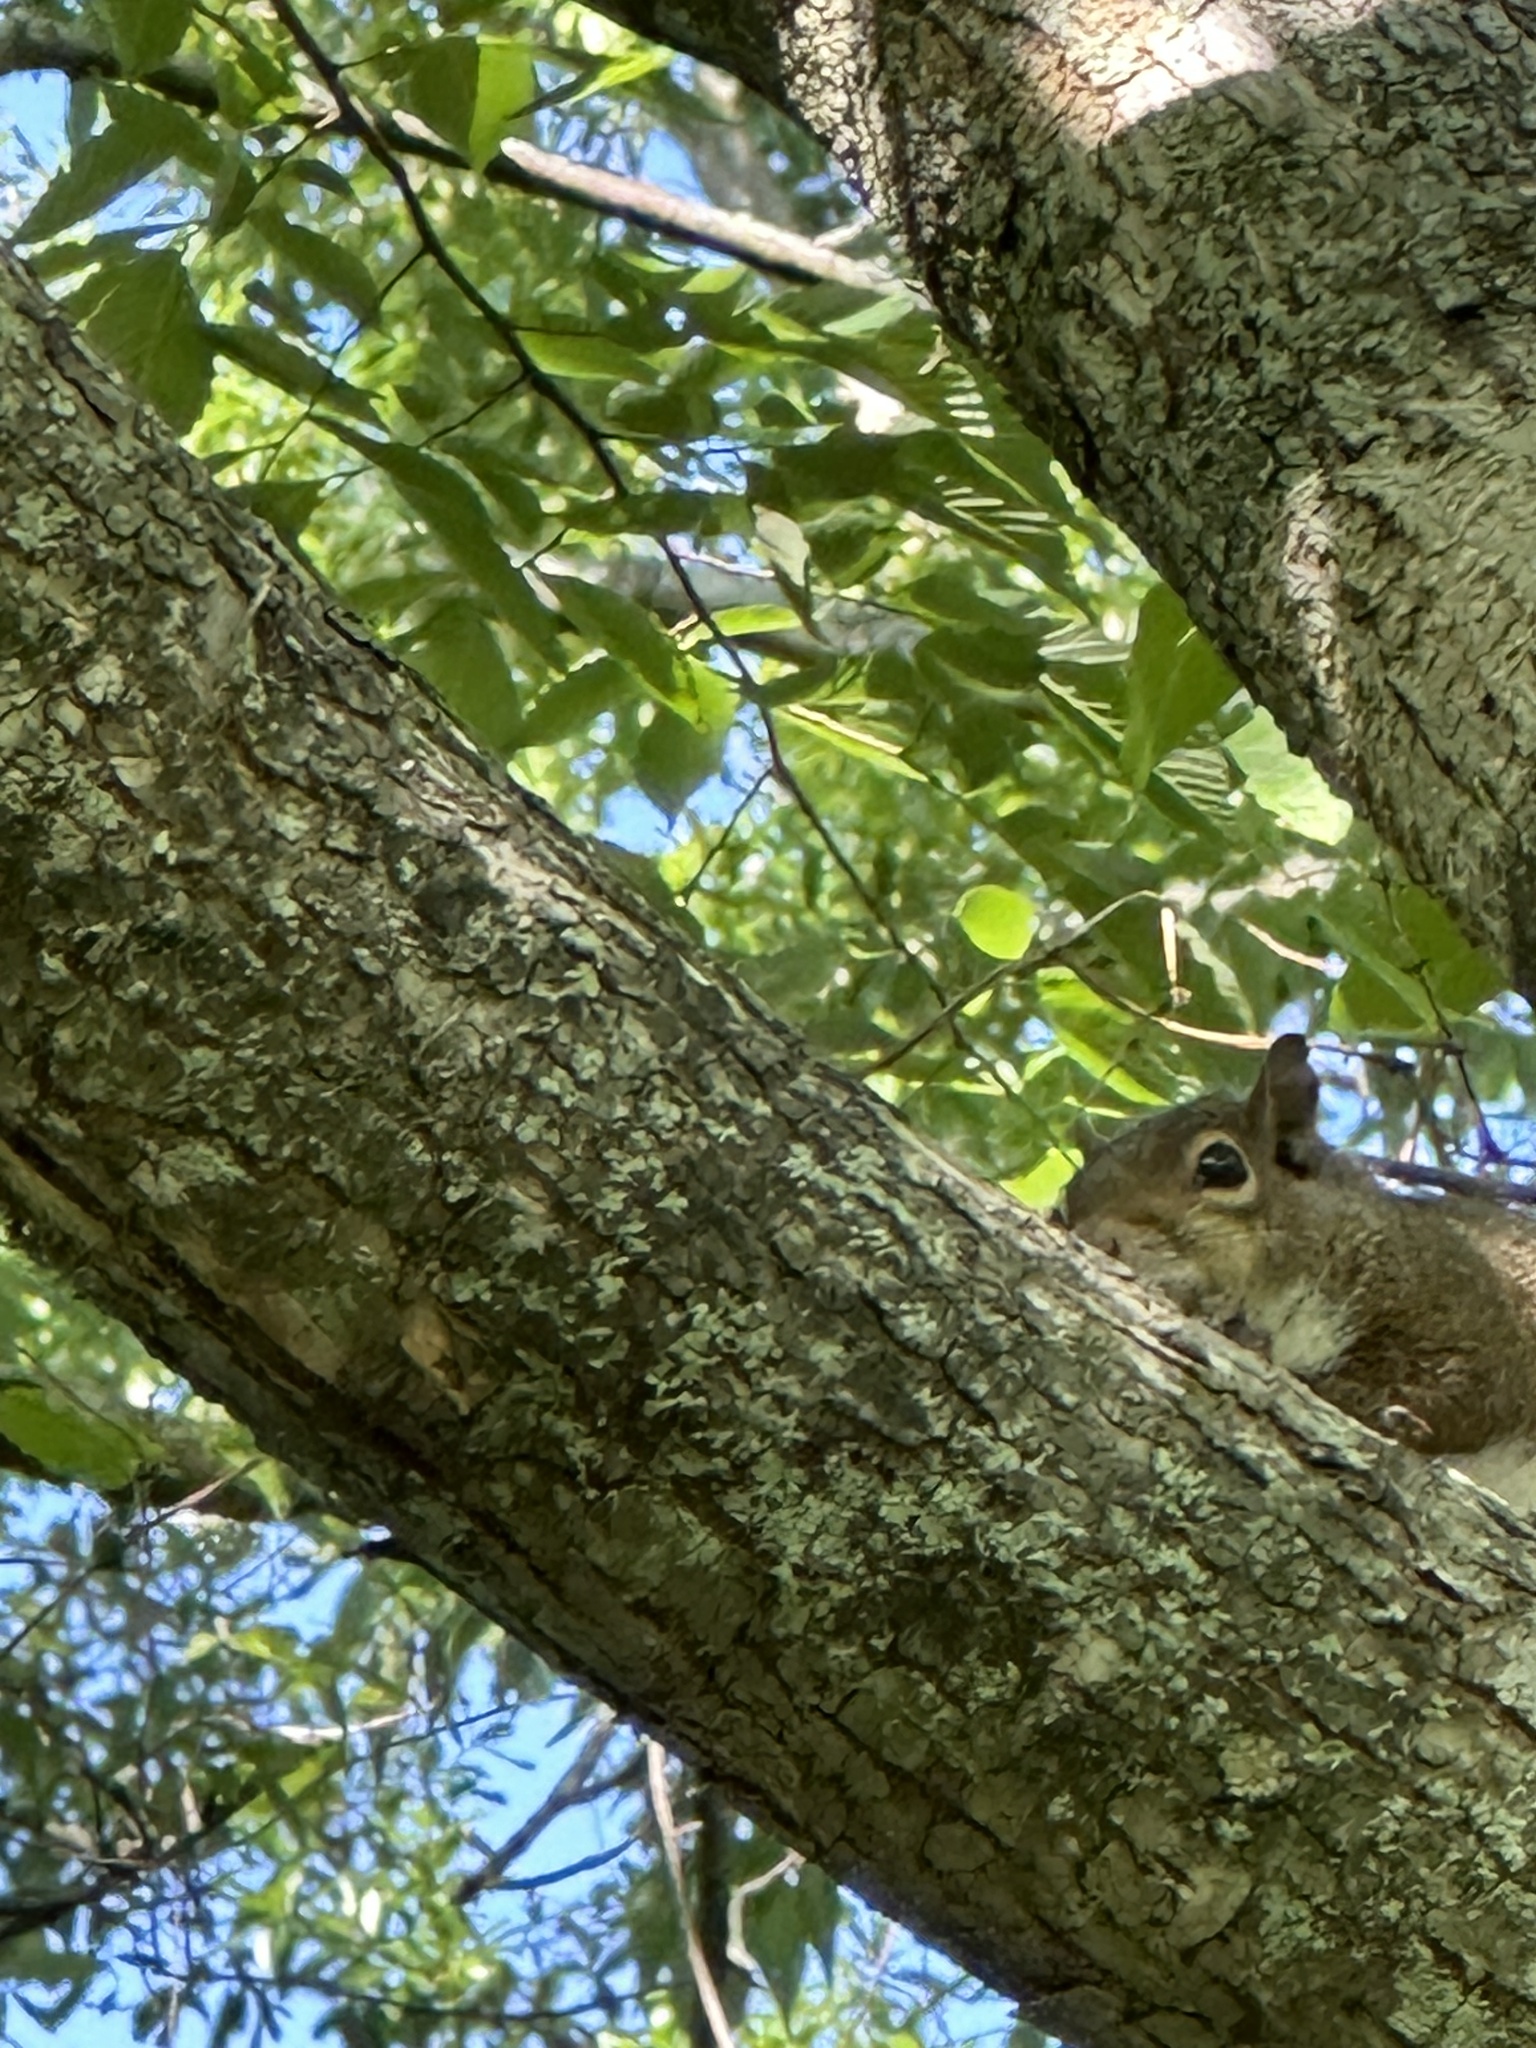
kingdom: Animalia
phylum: Chordata
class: Mammalia
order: Rodentia
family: Sciuridae
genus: Sciurus
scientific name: Sciurus carolinensis
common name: Eastern gray squirrel
